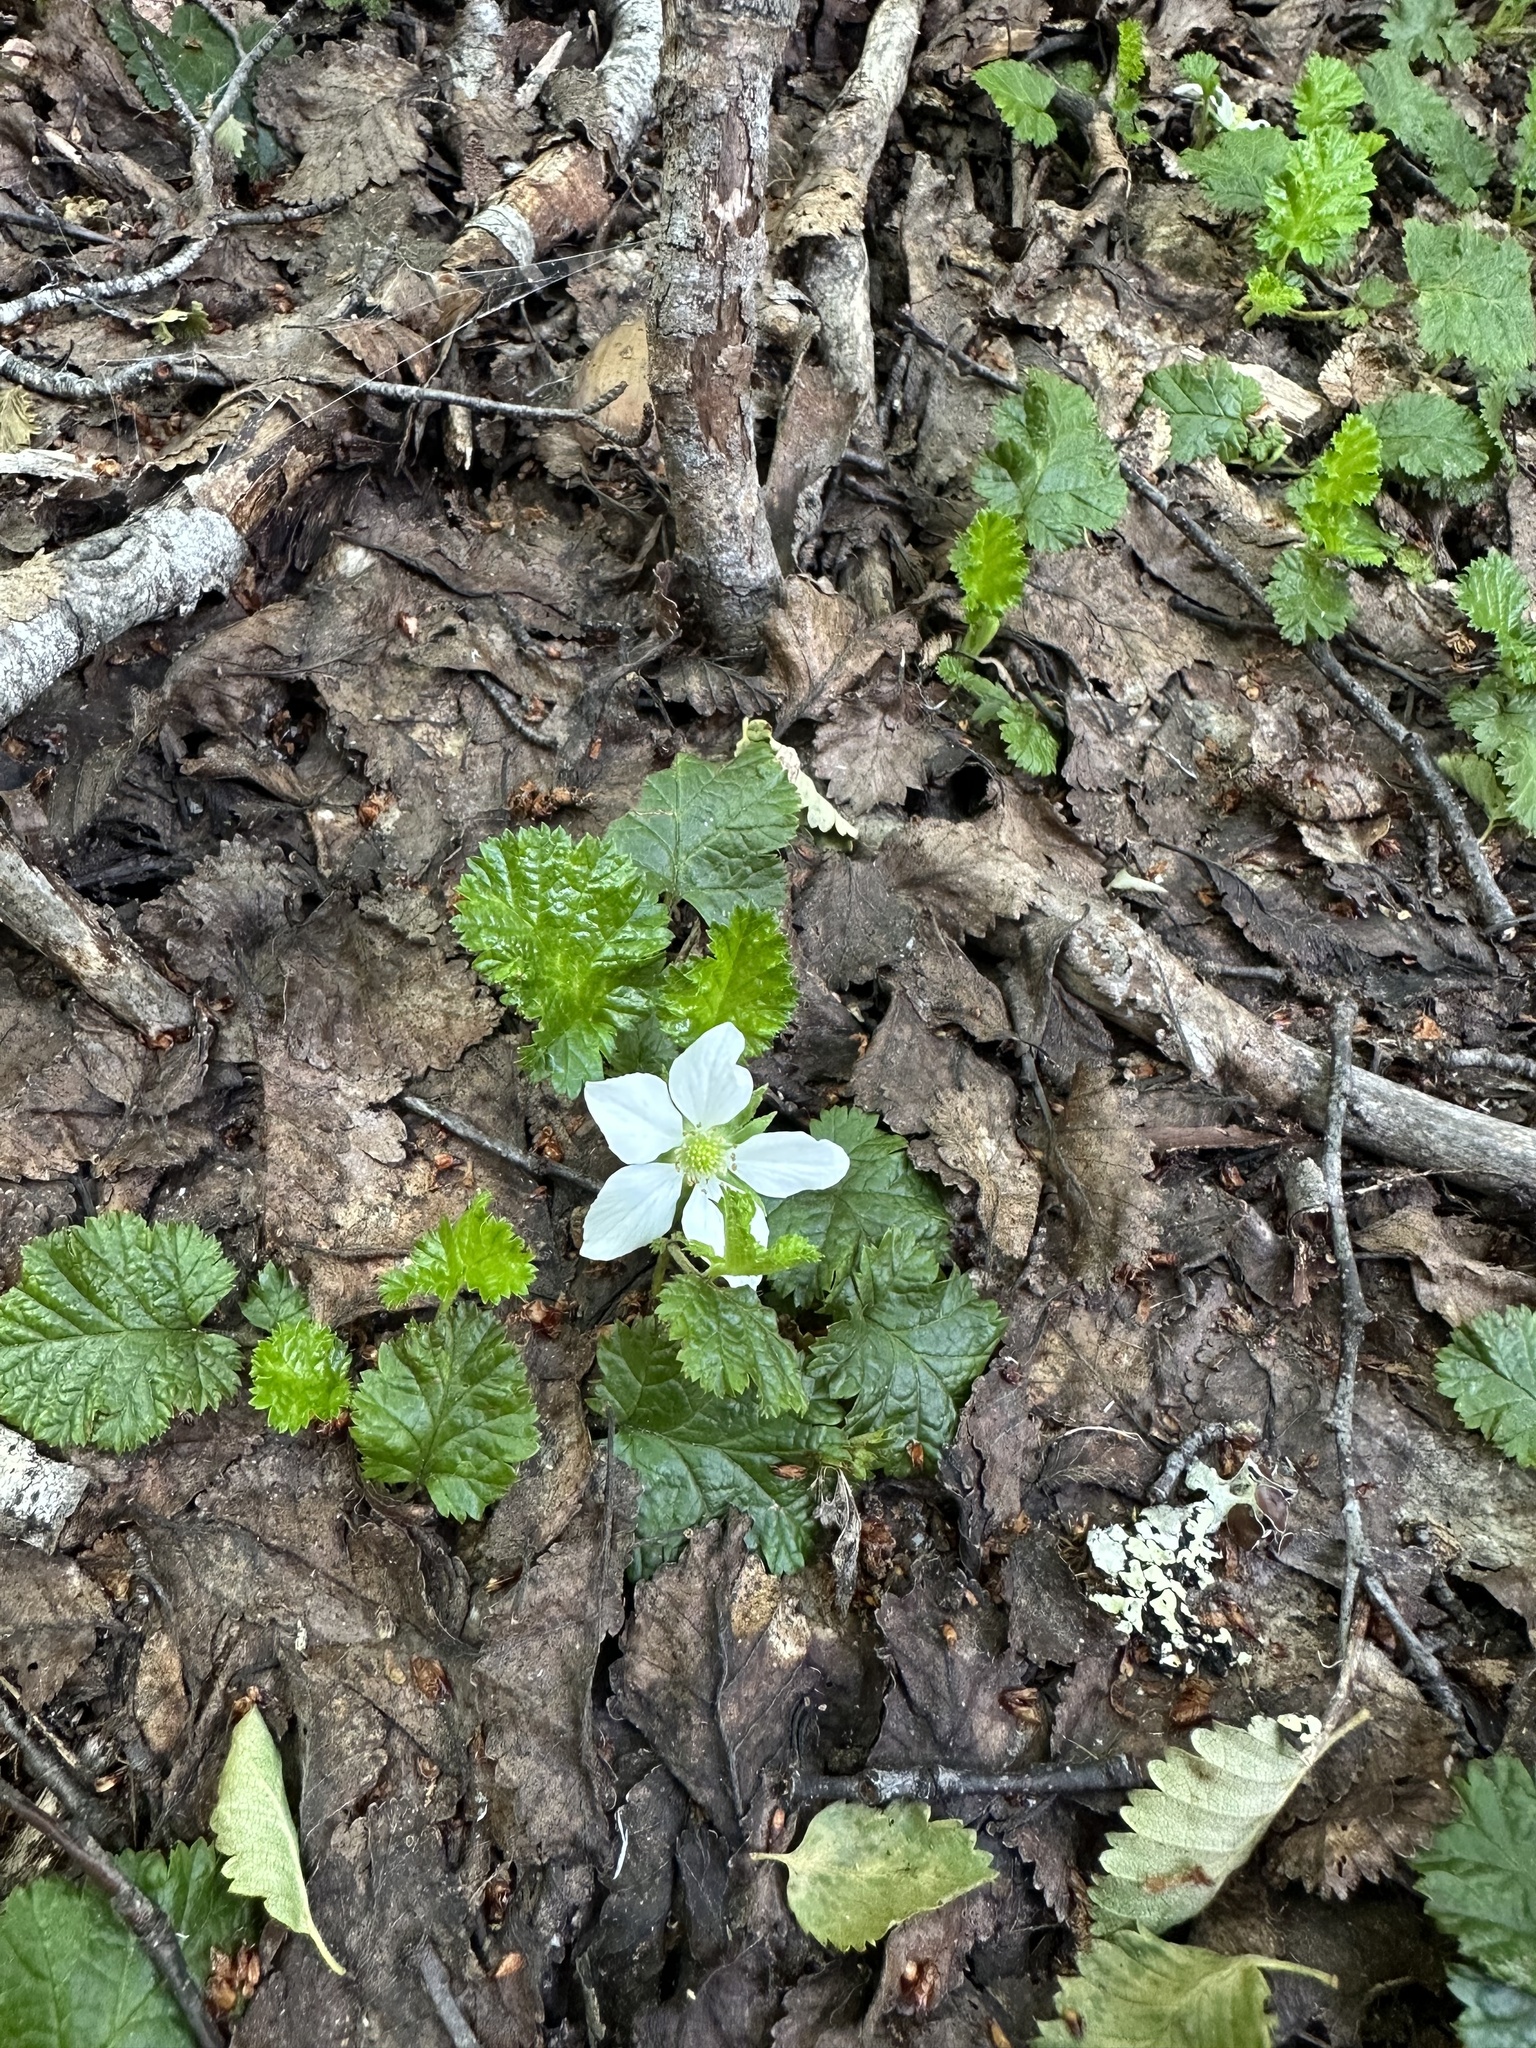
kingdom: Plantae
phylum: Tracheophyta
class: Magnoliopsida
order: Rosales
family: Rosaceae
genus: Rubus
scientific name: Rubus geoides
